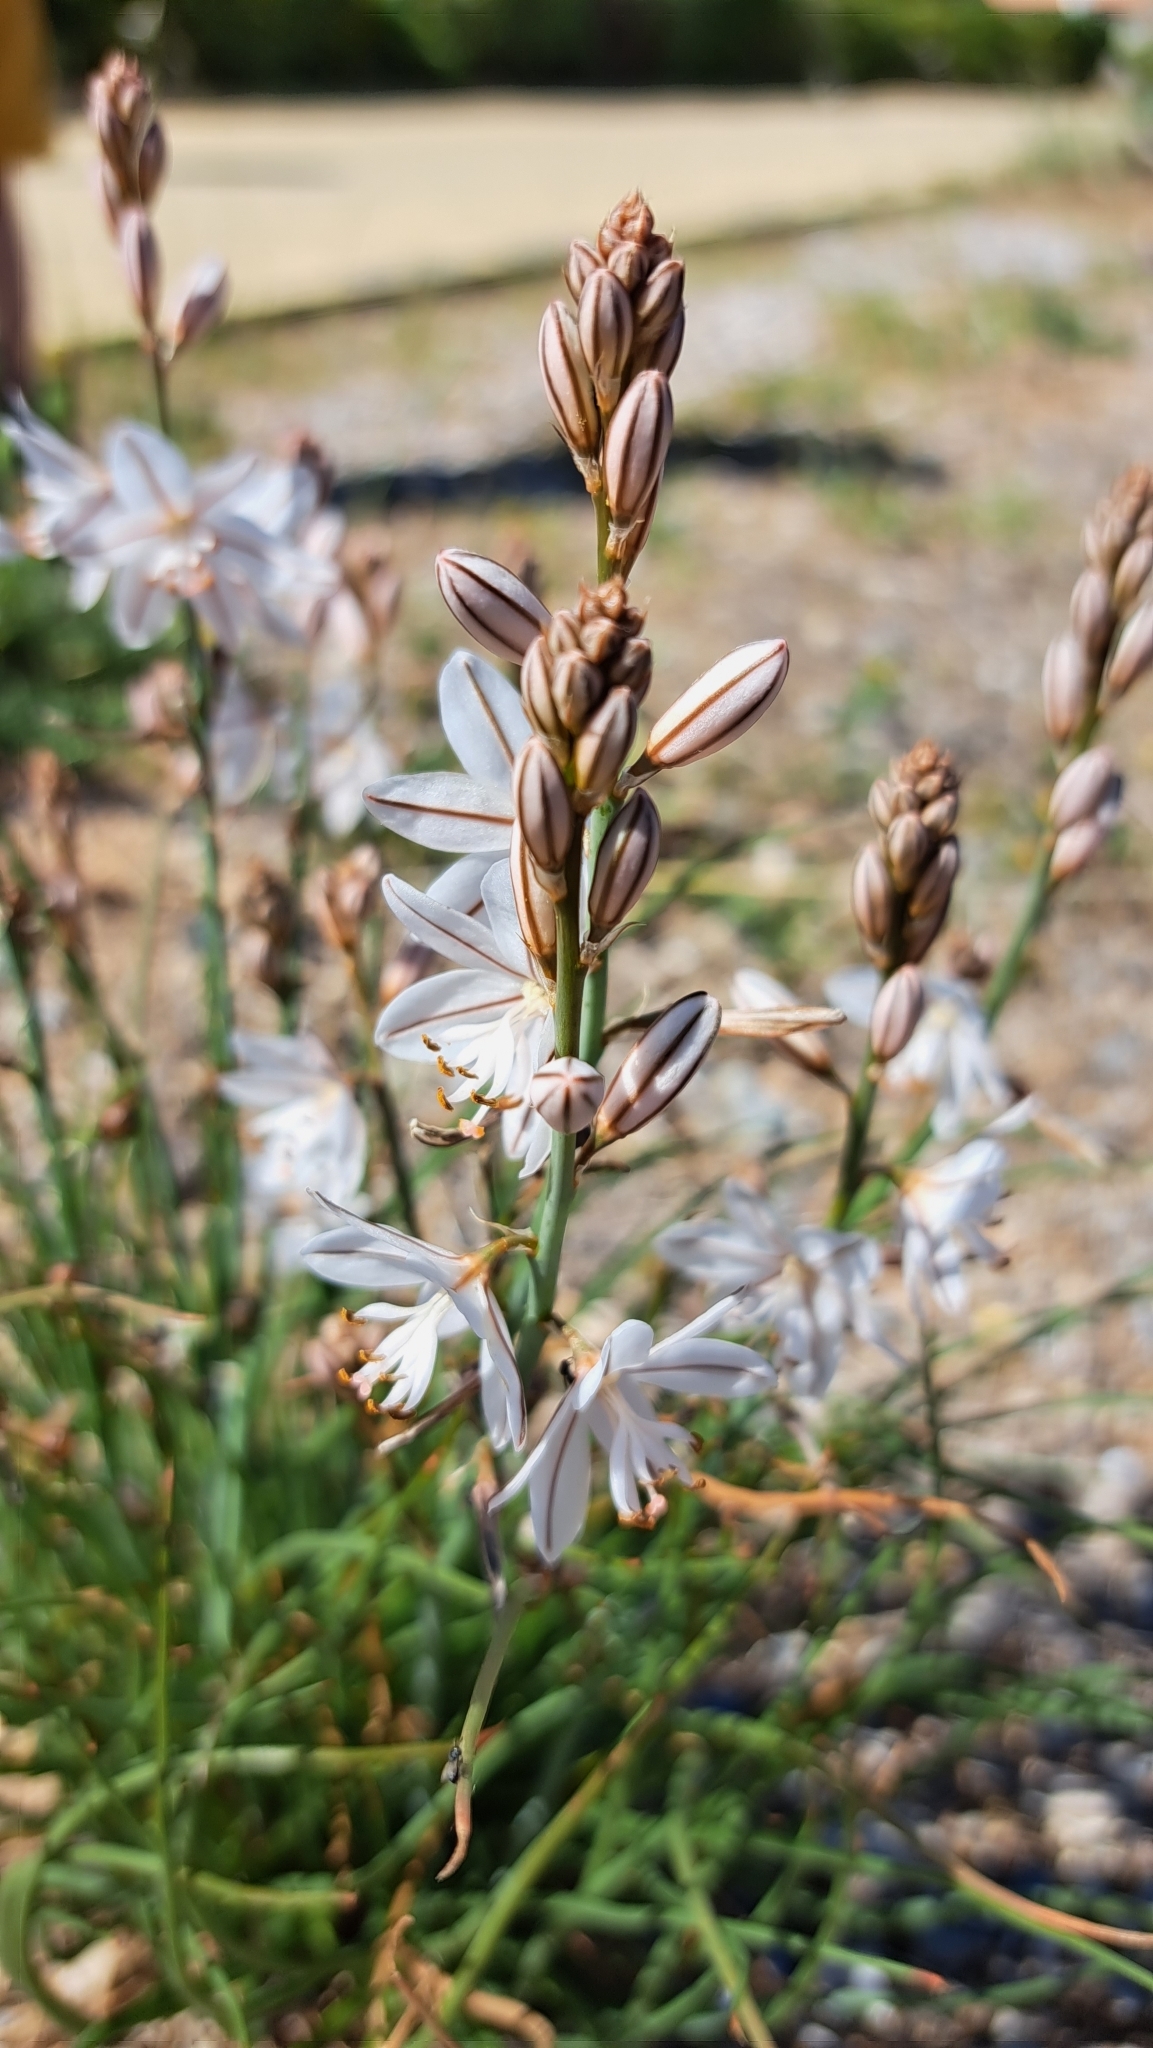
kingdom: Plantae
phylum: Tracheophyta
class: Liliopsida
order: Asparagales
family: Asphodelaceae
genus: Asphodelus
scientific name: Asphodelus fistulosus
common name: Onionweed
